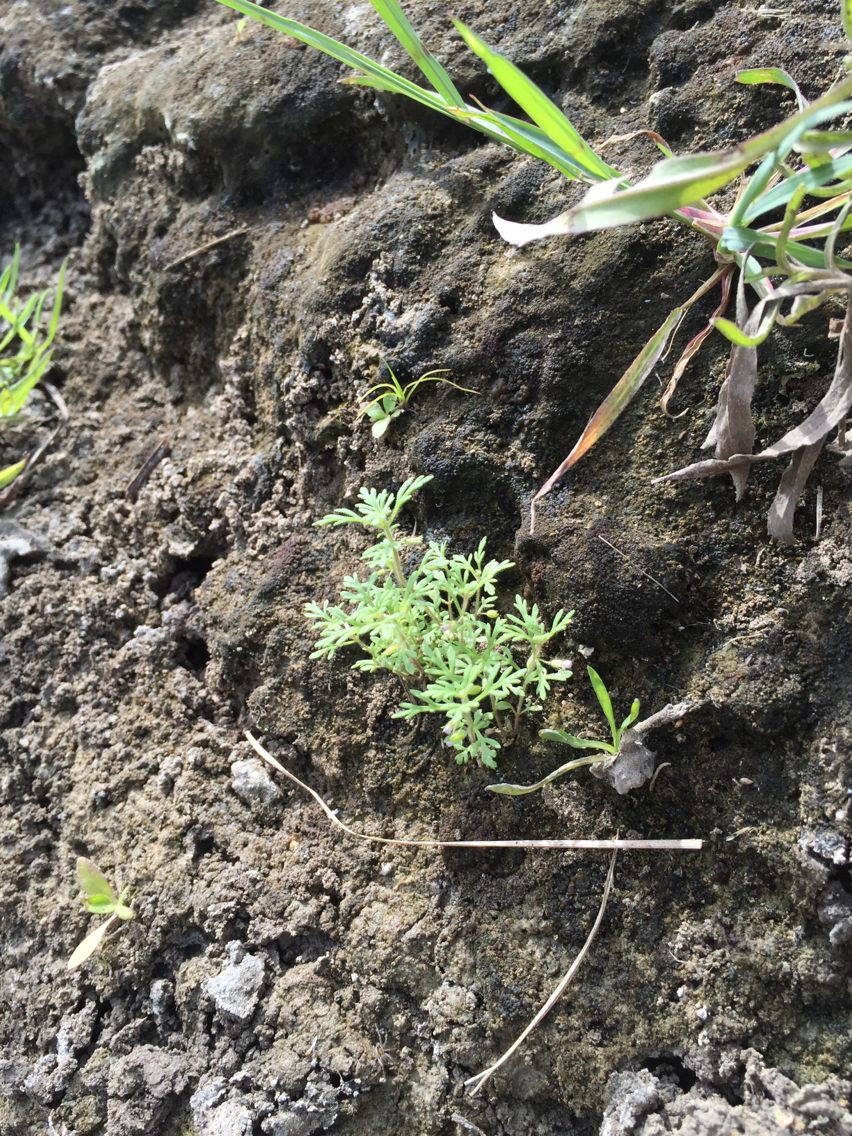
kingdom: Plantae
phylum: Tracheophyta
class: Magnoliopsida
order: Lamiales
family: Plantaginaceae
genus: Leucospora
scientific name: Leucospora multifida
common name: Narrow-leaf paleseed
